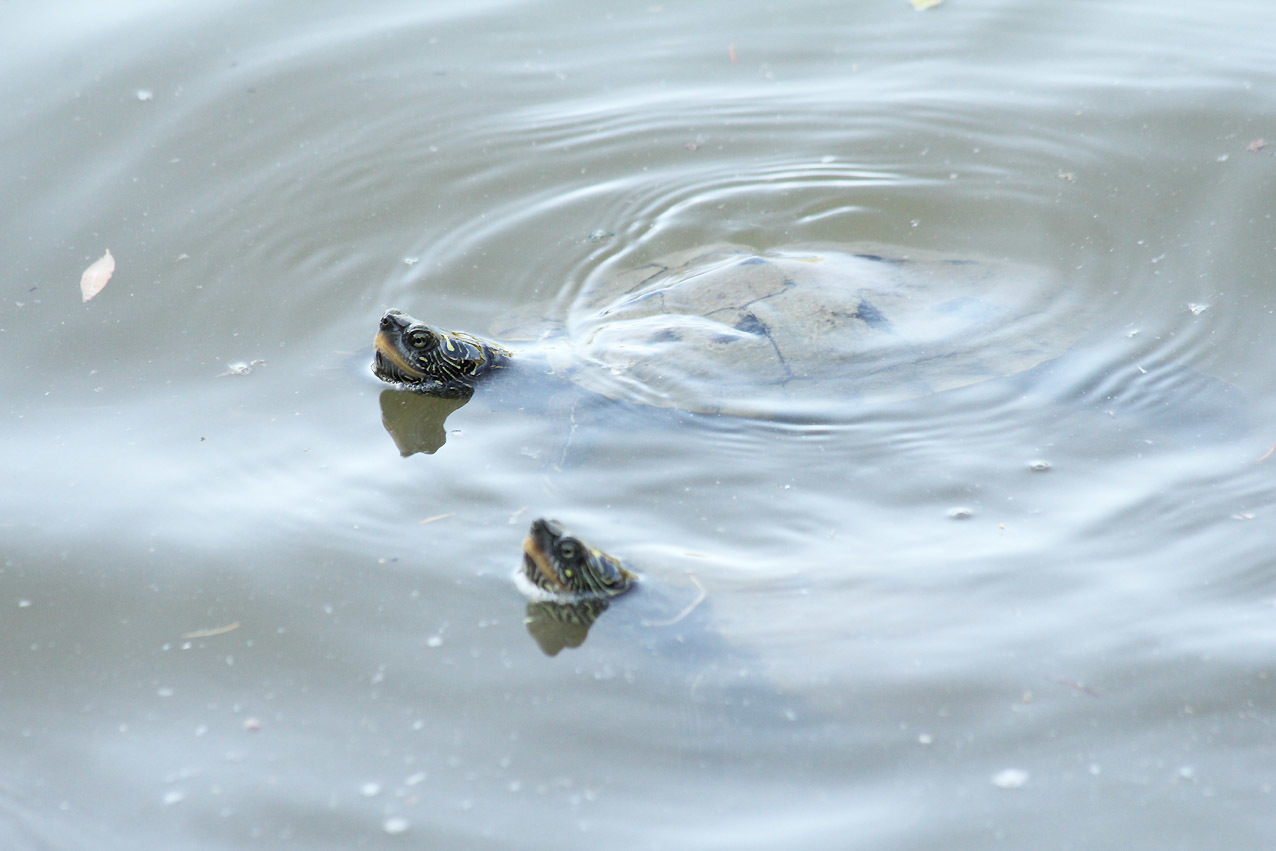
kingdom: Animalia
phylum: Chordata
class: Testudines
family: Emydidae
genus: Graptemys
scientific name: Graptemys pseudogeographica
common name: False map turtle
